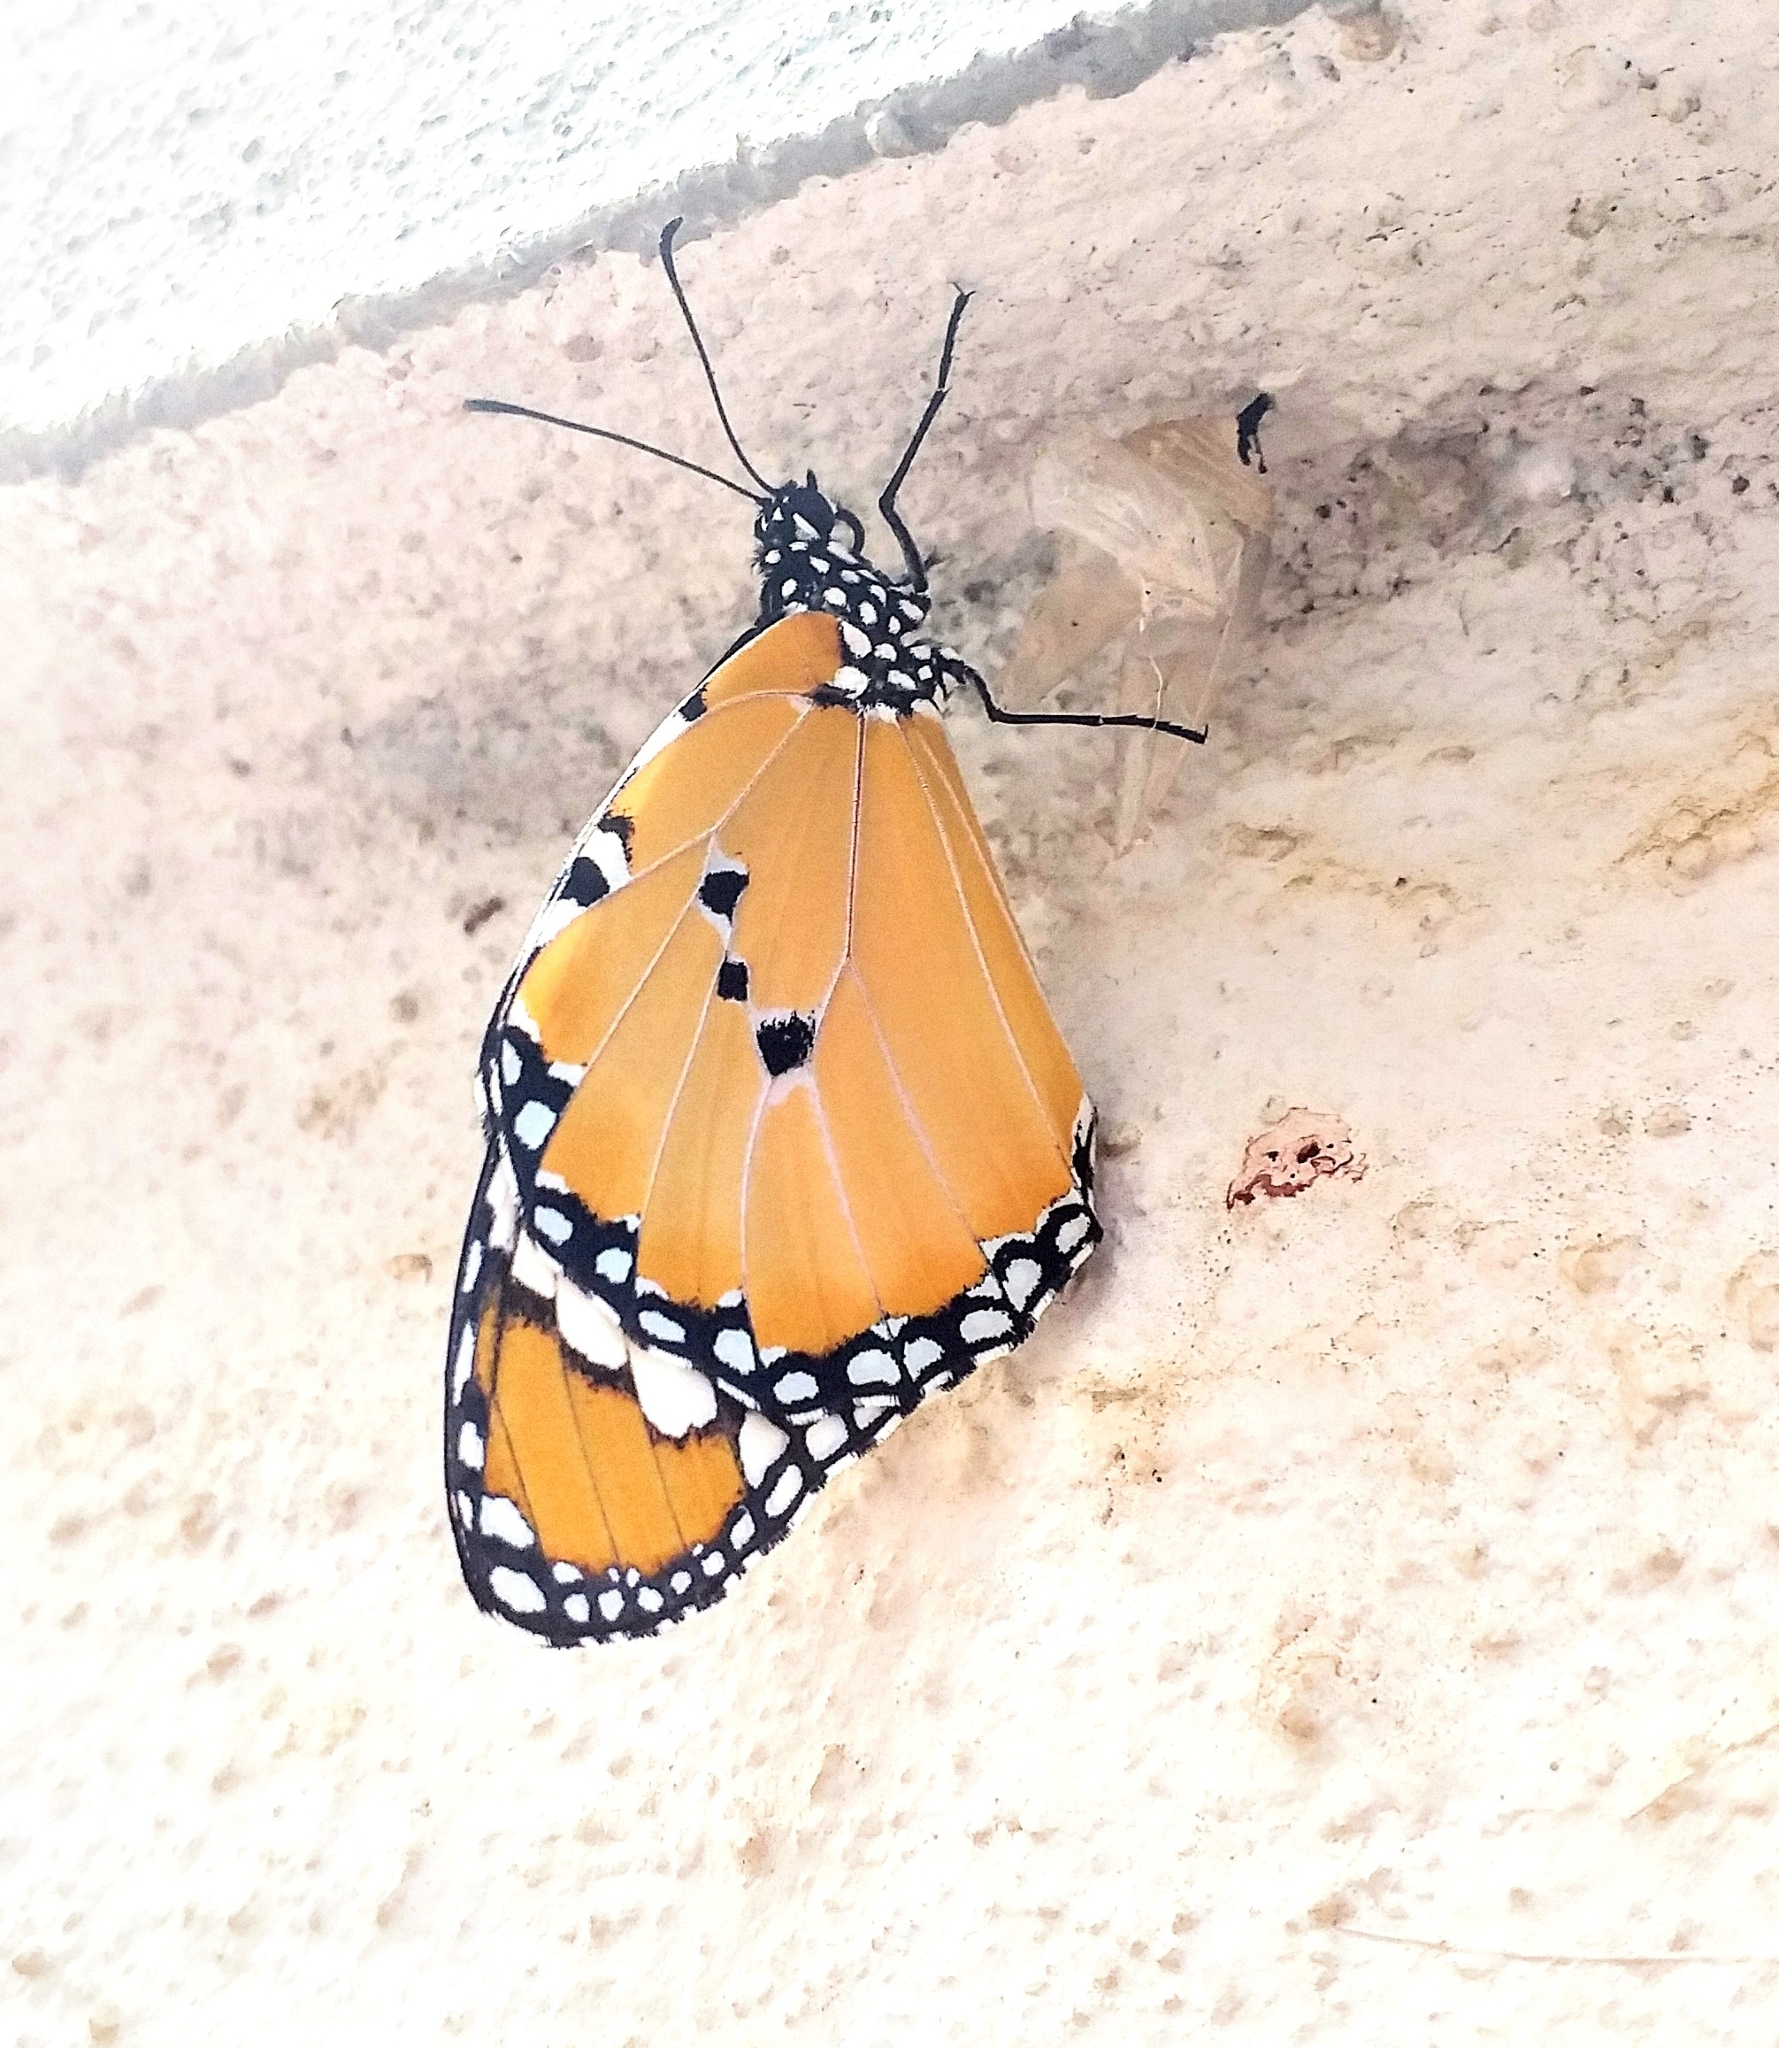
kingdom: Animalia
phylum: Arthropoda
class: Insecta
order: Lepidoptera
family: Nymphalidae
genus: Danaus
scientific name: Danaus chrysippus
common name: Plain tiger
